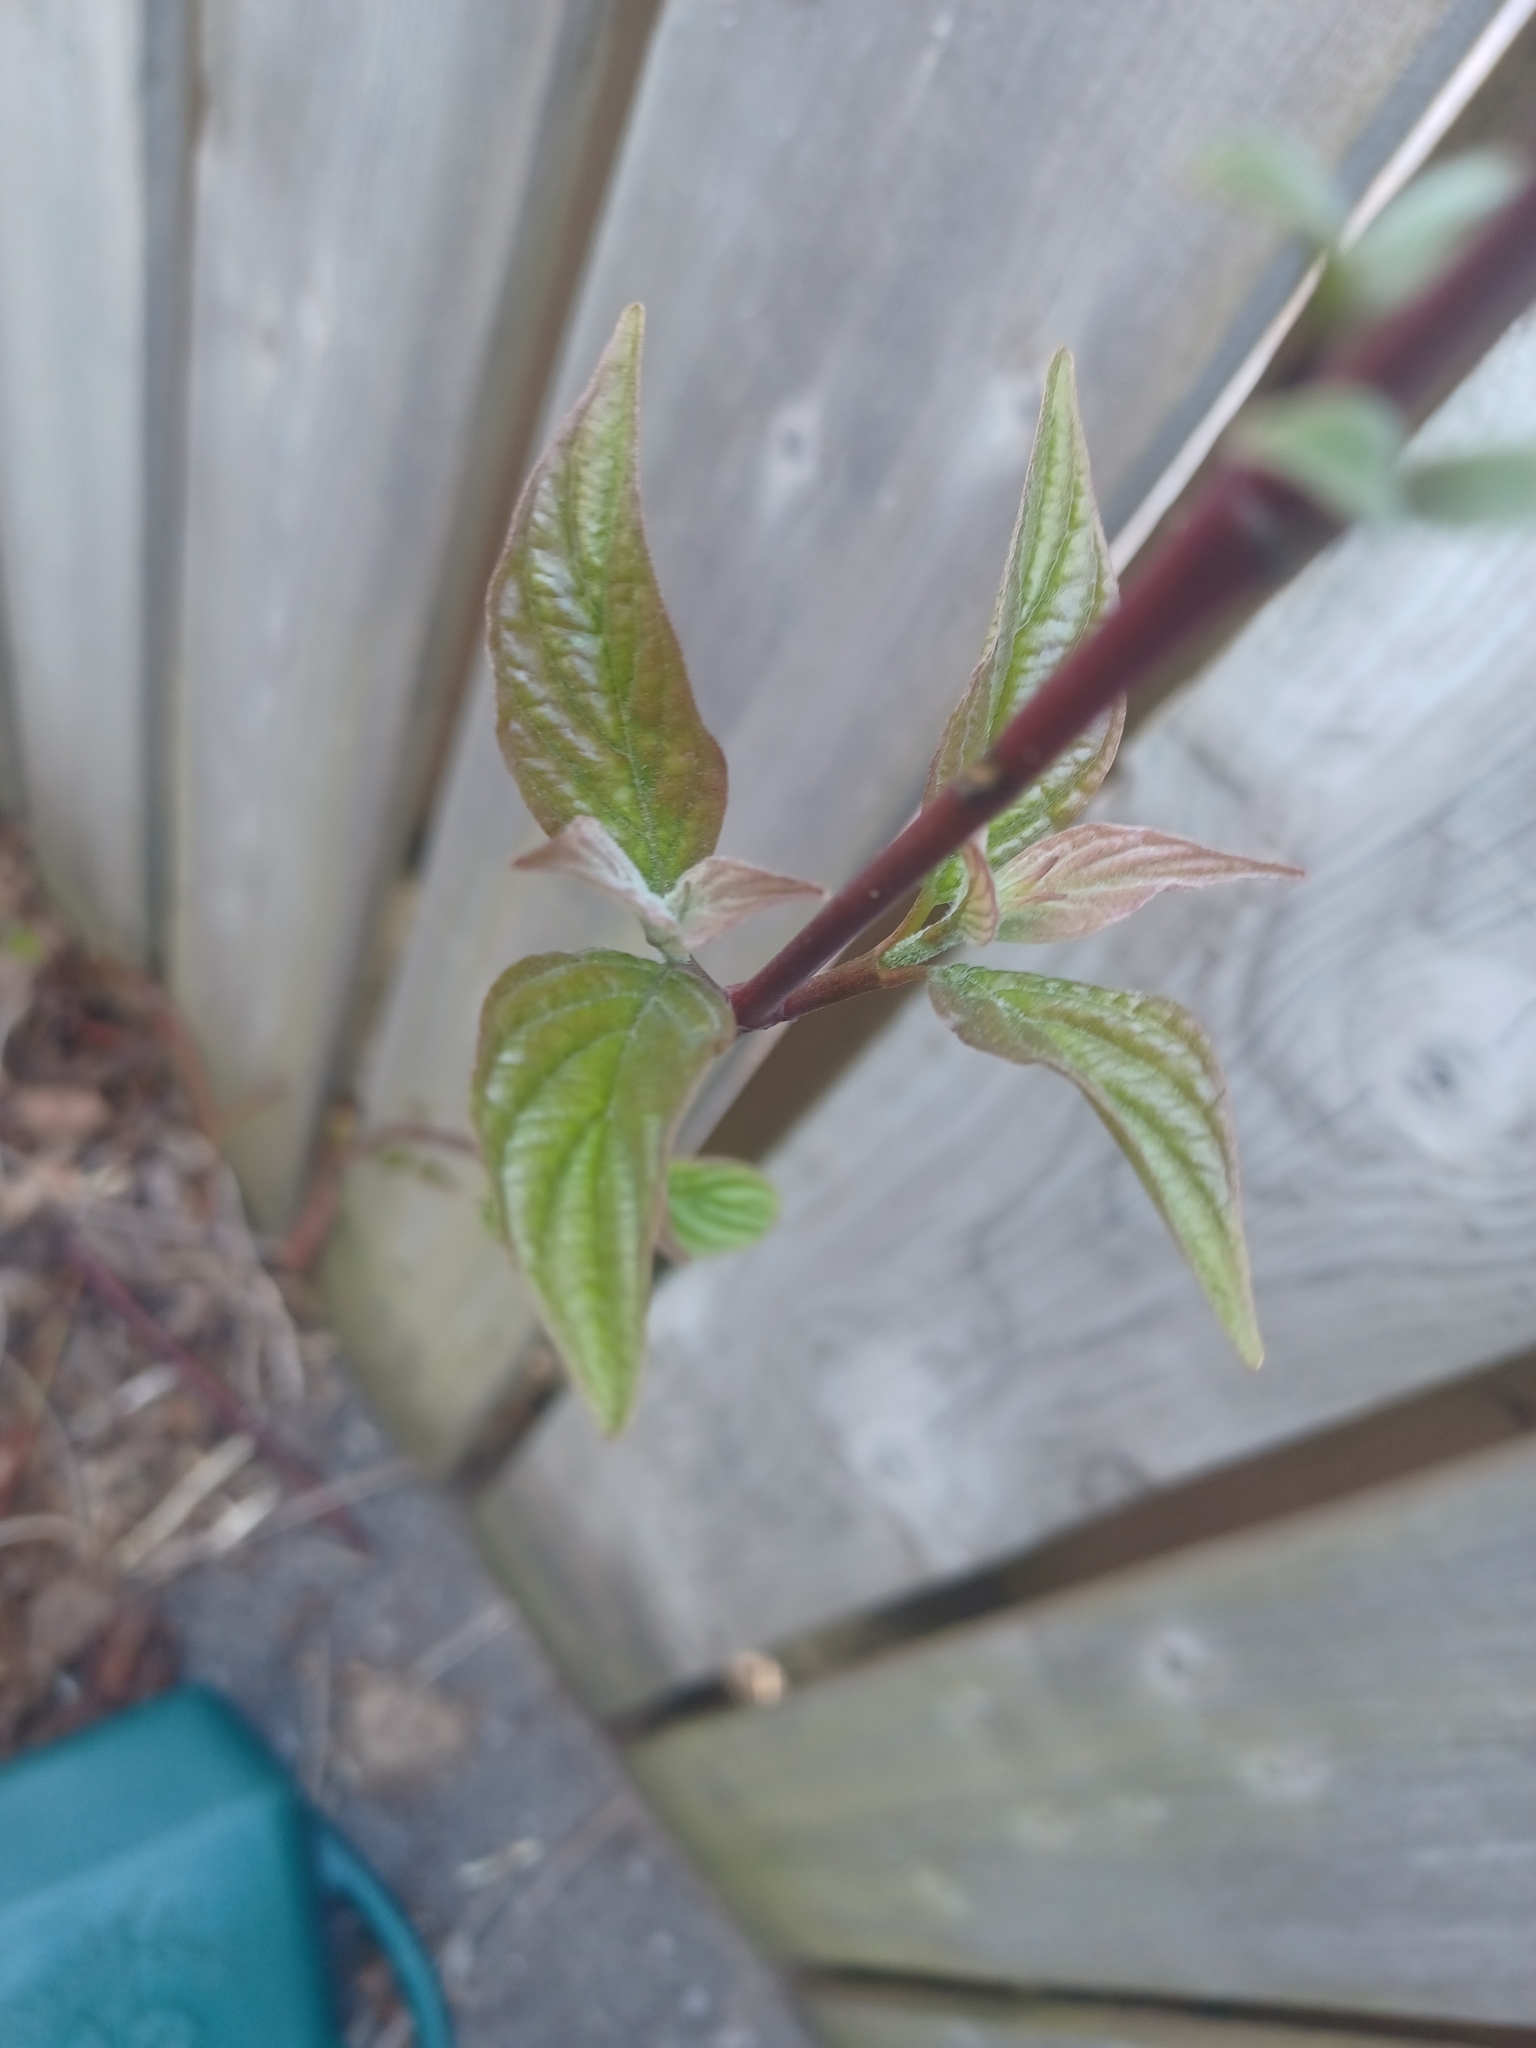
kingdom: Plantae
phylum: Tracheophyta
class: Magnoliopsida
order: Cornales
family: Cornaceae
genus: Cornus
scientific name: Cornus sericea
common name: Red-osier dogwood
